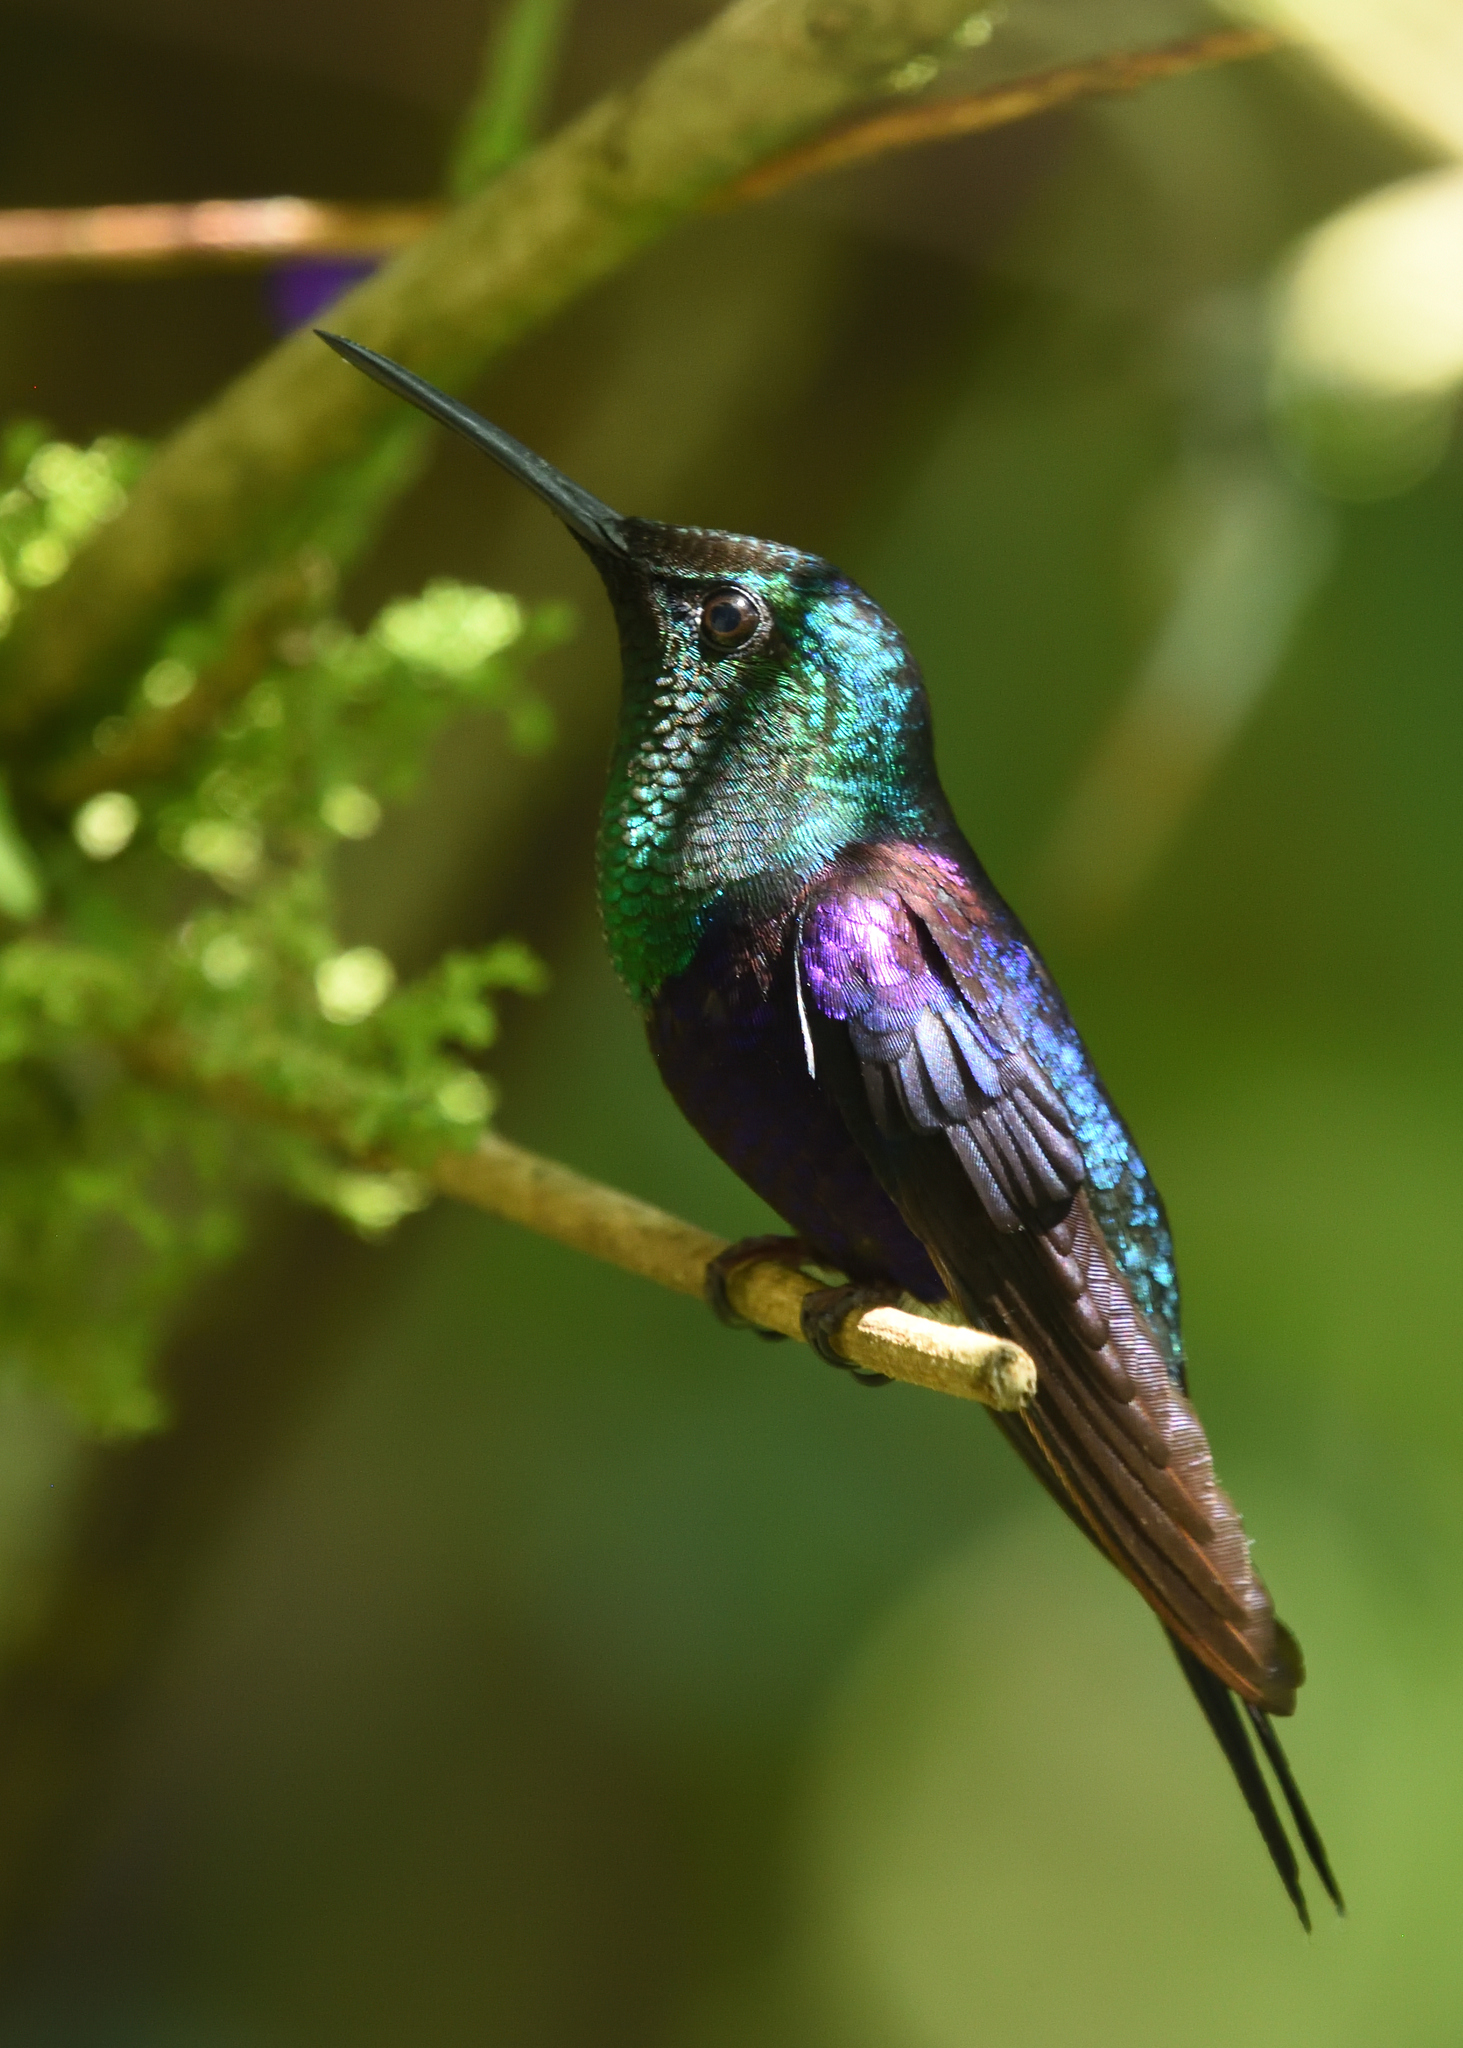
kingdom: Animalia
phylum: Chordata
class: Aves
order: Apodiformes
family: Trochilidae
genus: Thalurania
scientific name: Thalurania colombica
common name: Crowned woodnymph
